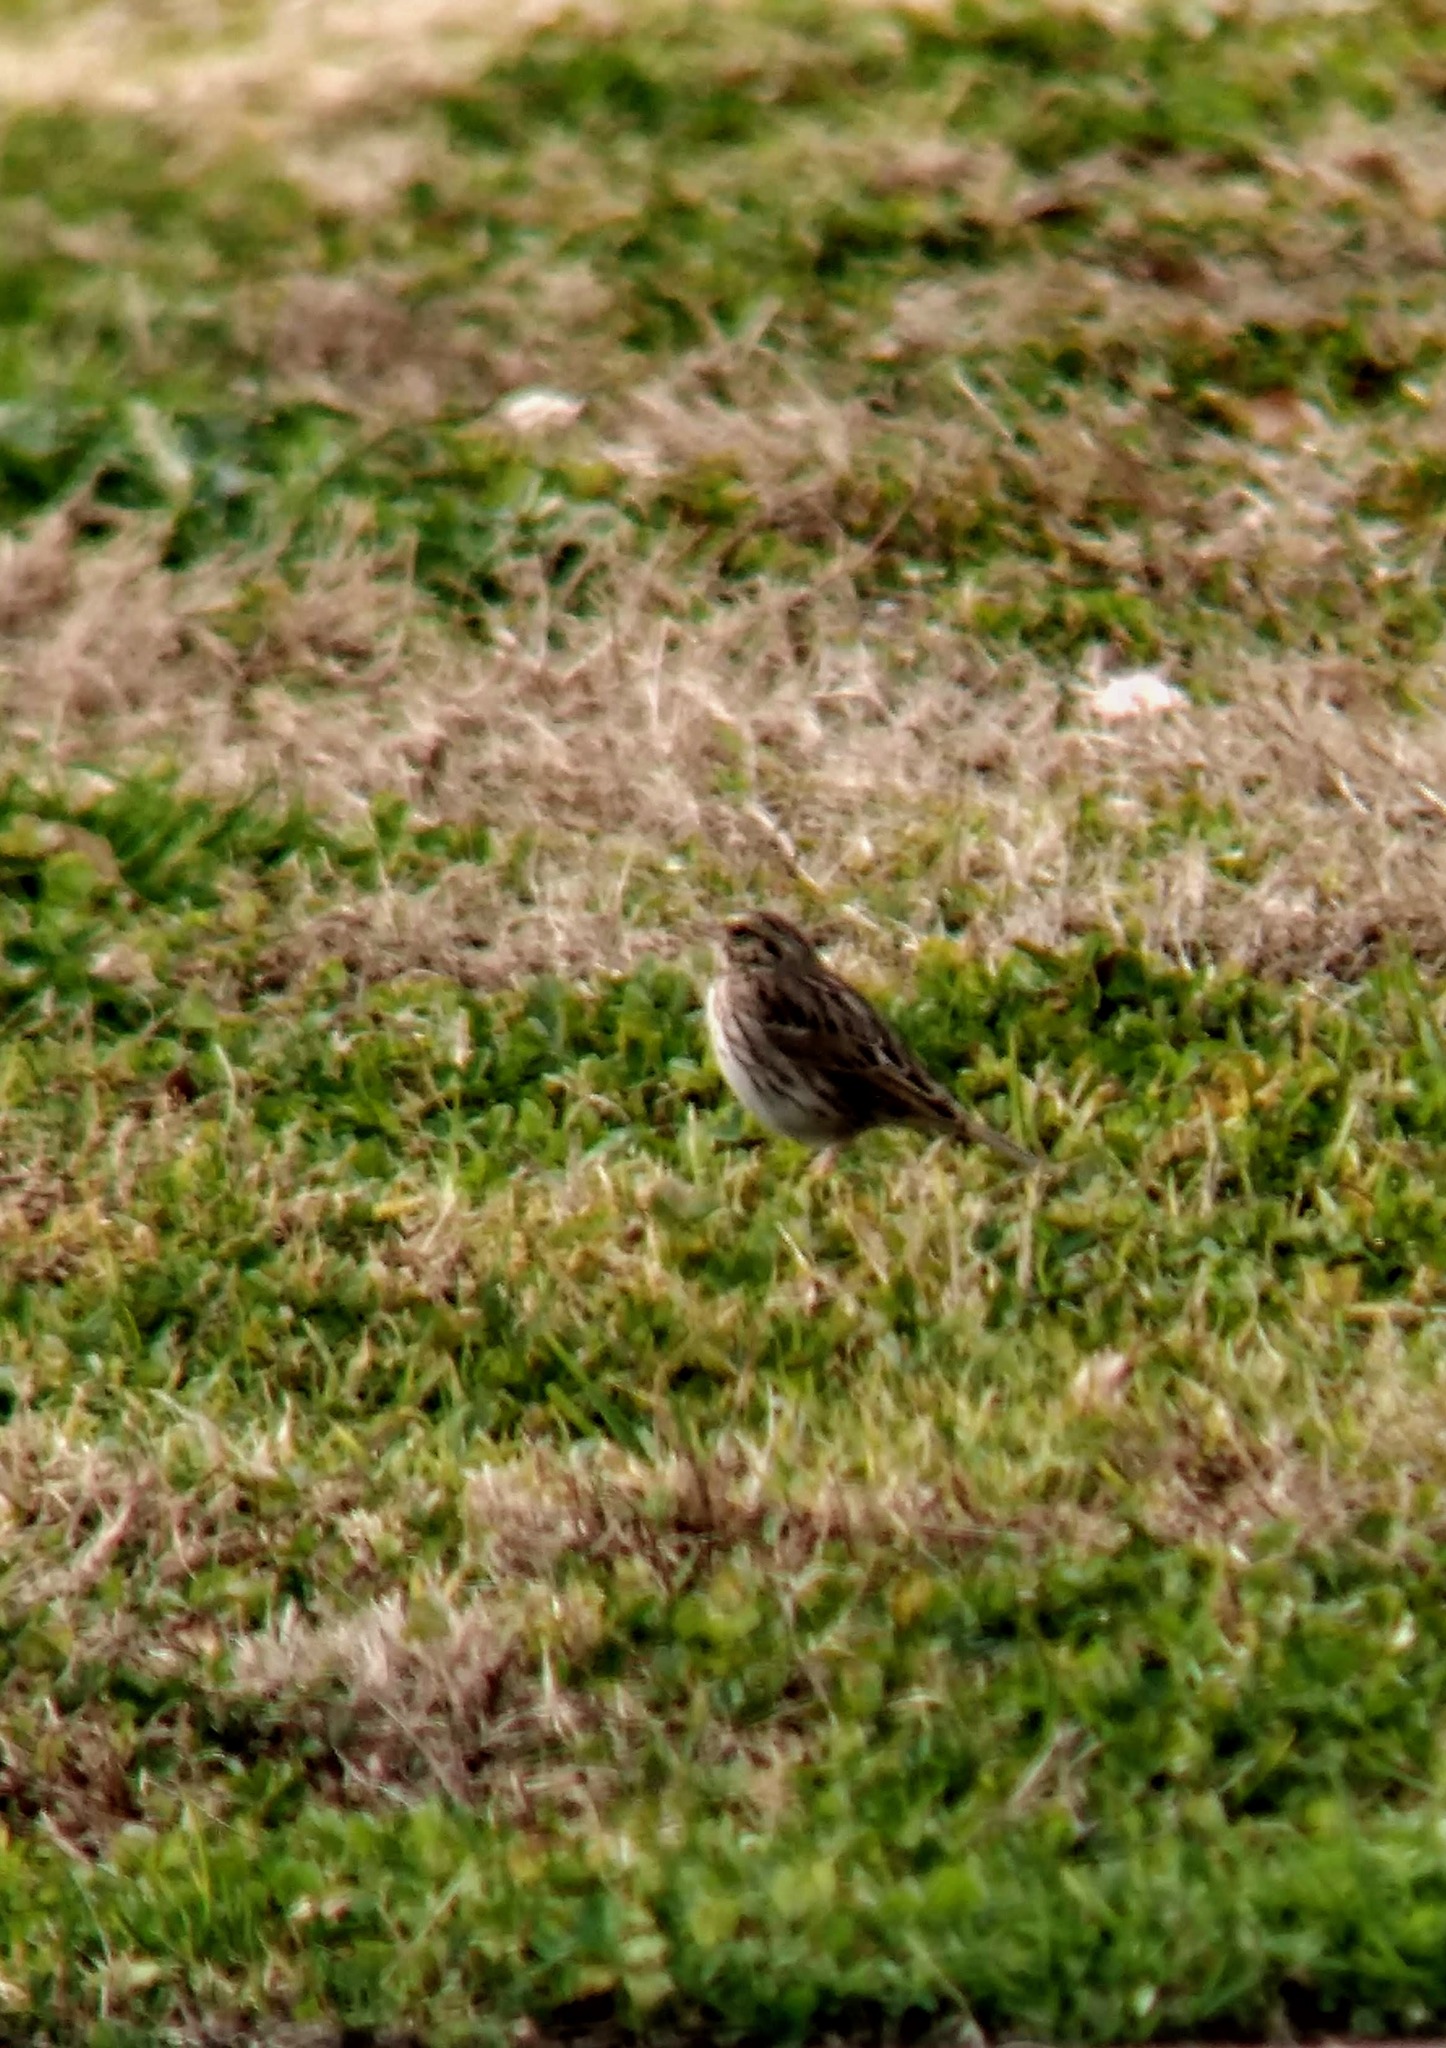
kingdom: Animalia
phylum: Chordata
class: Aves
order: Passeriformes
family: Passerellidae
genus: Passerculus
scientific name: Passerculus sandwichensis
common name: Savannah sparrow
